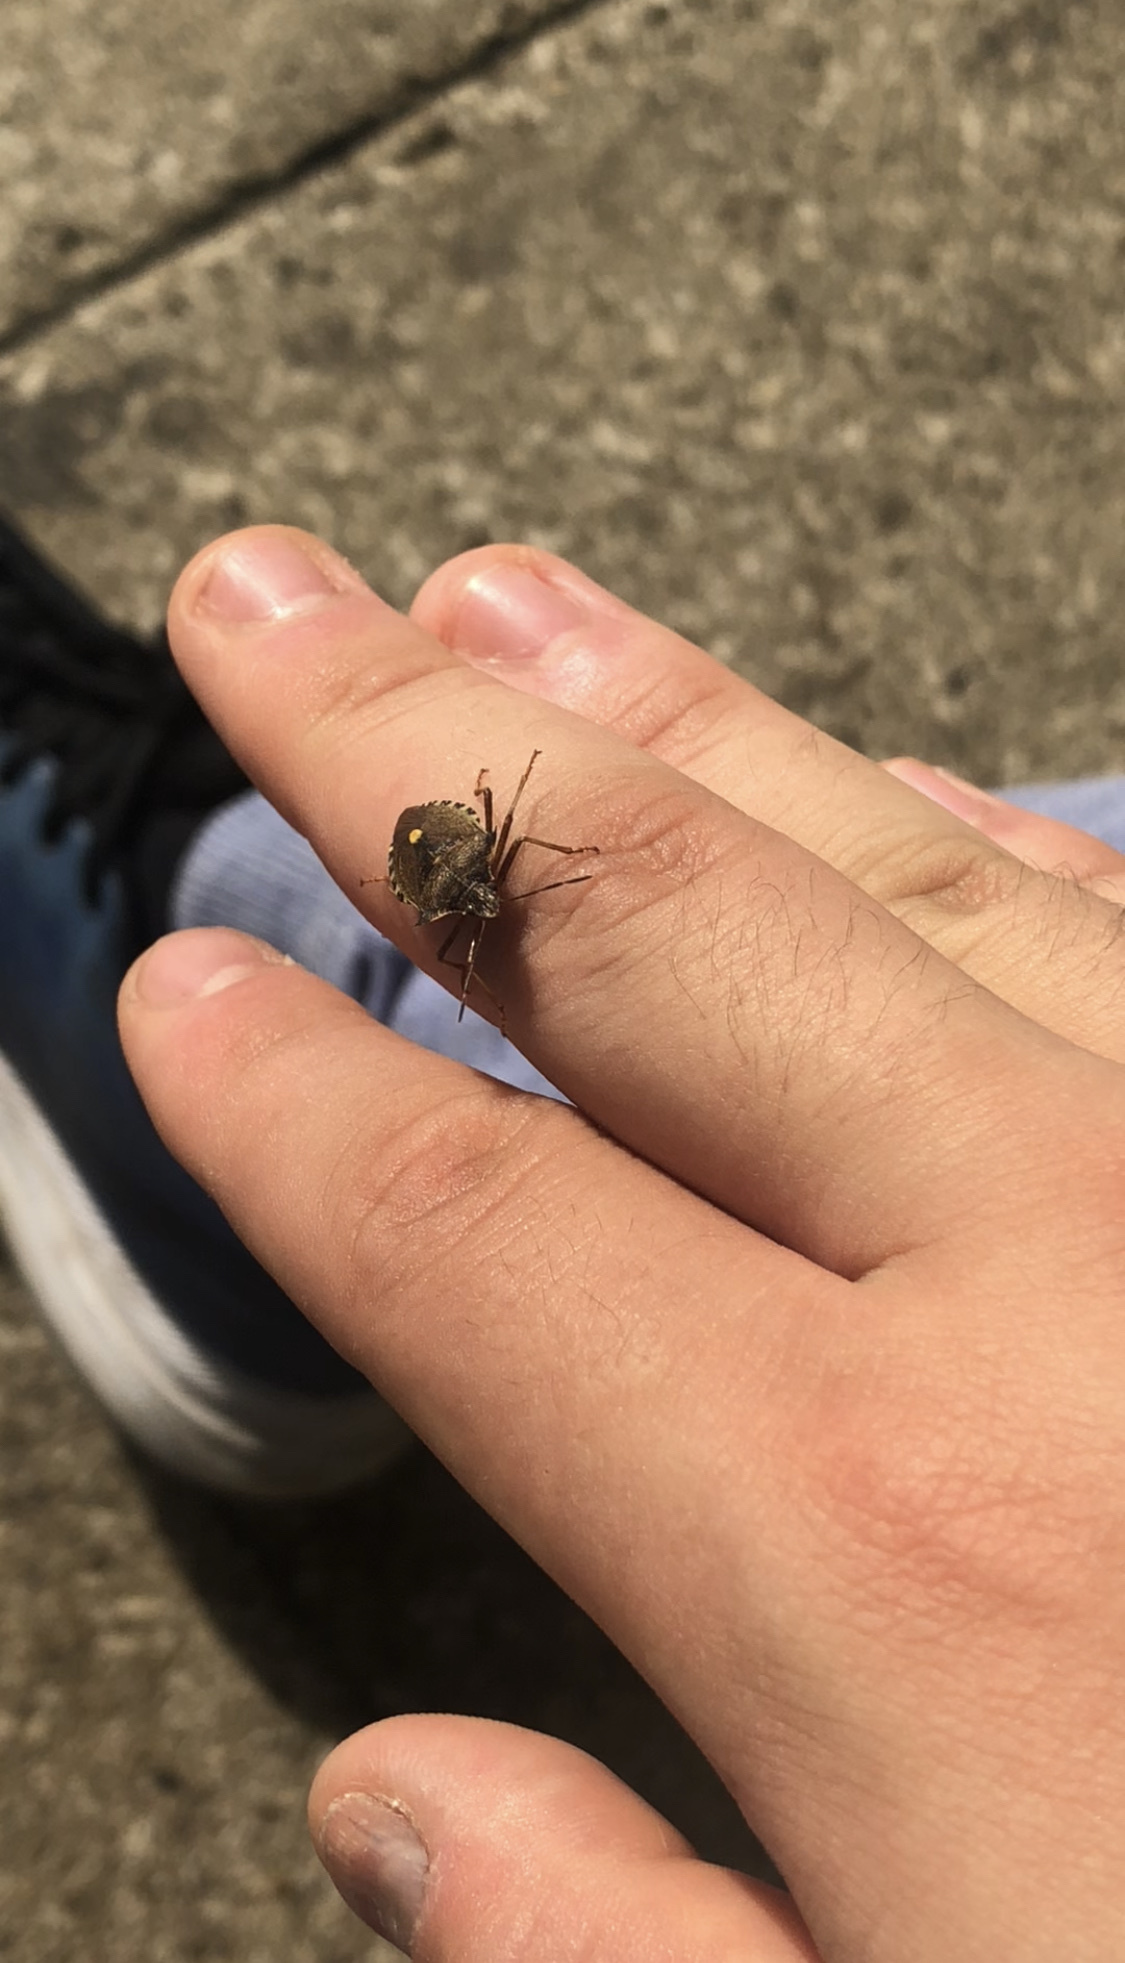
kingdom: Animalia
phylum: Arthropoda
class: Insecta
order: Hemiptera
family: Pentatomidae
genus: Pentatoma
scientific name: Pentatoma rufipes
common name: Forest bug
